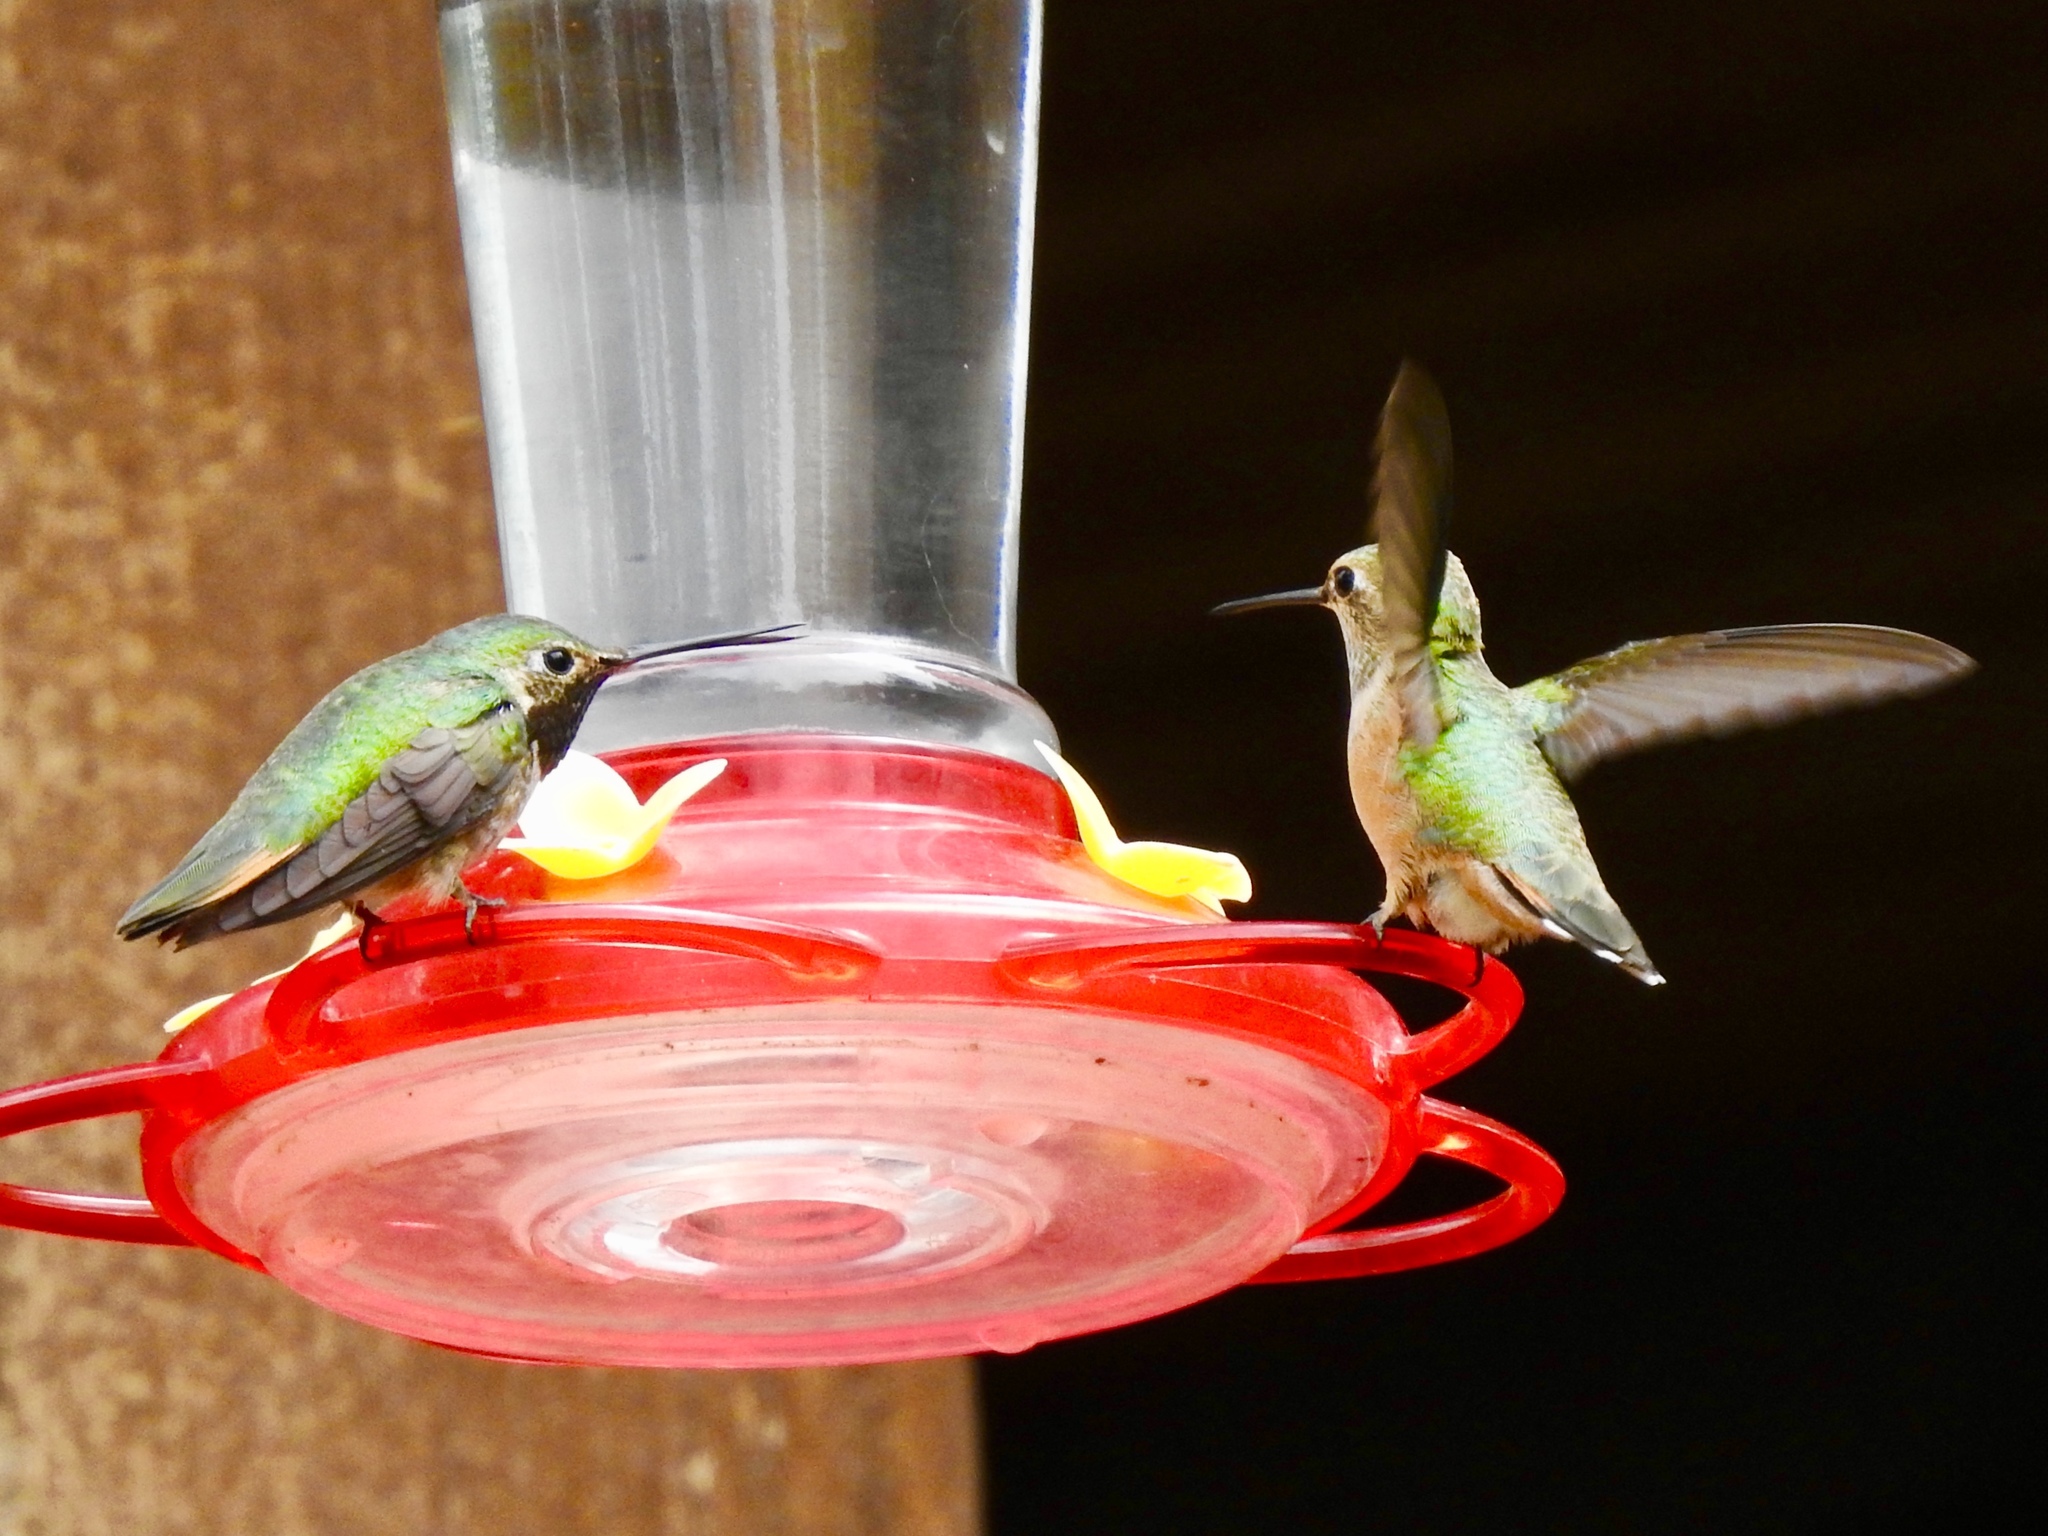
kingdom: Animalia
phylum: Chordata
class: Aves
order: Apodiformes
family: Trochilidae
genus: Selasphorus
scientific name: Selasphorus platycercus
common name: Broad-tailed hummingbird
